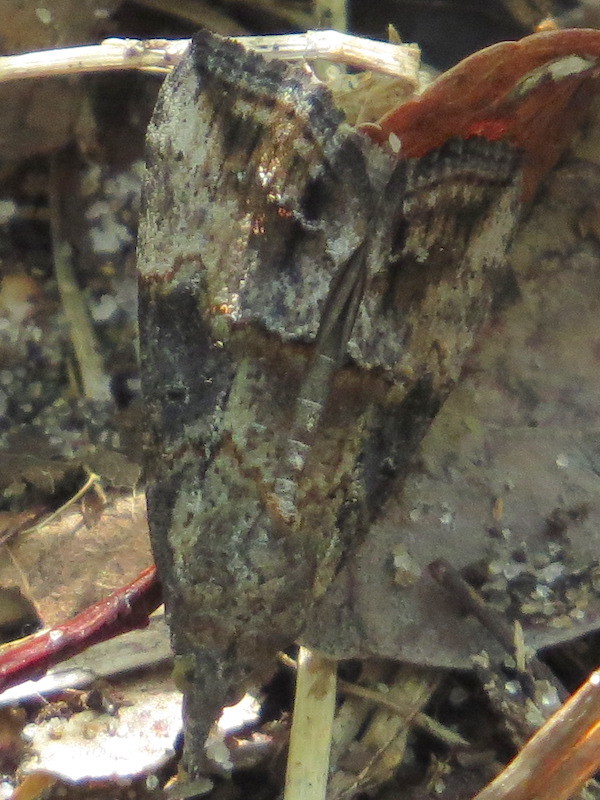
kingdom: Animalia
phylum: Arthropoda
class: Insecta
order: Lepidoptera
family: Erebidae
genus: Hypena
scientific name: Hypena scabra
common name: Green cloverworm
